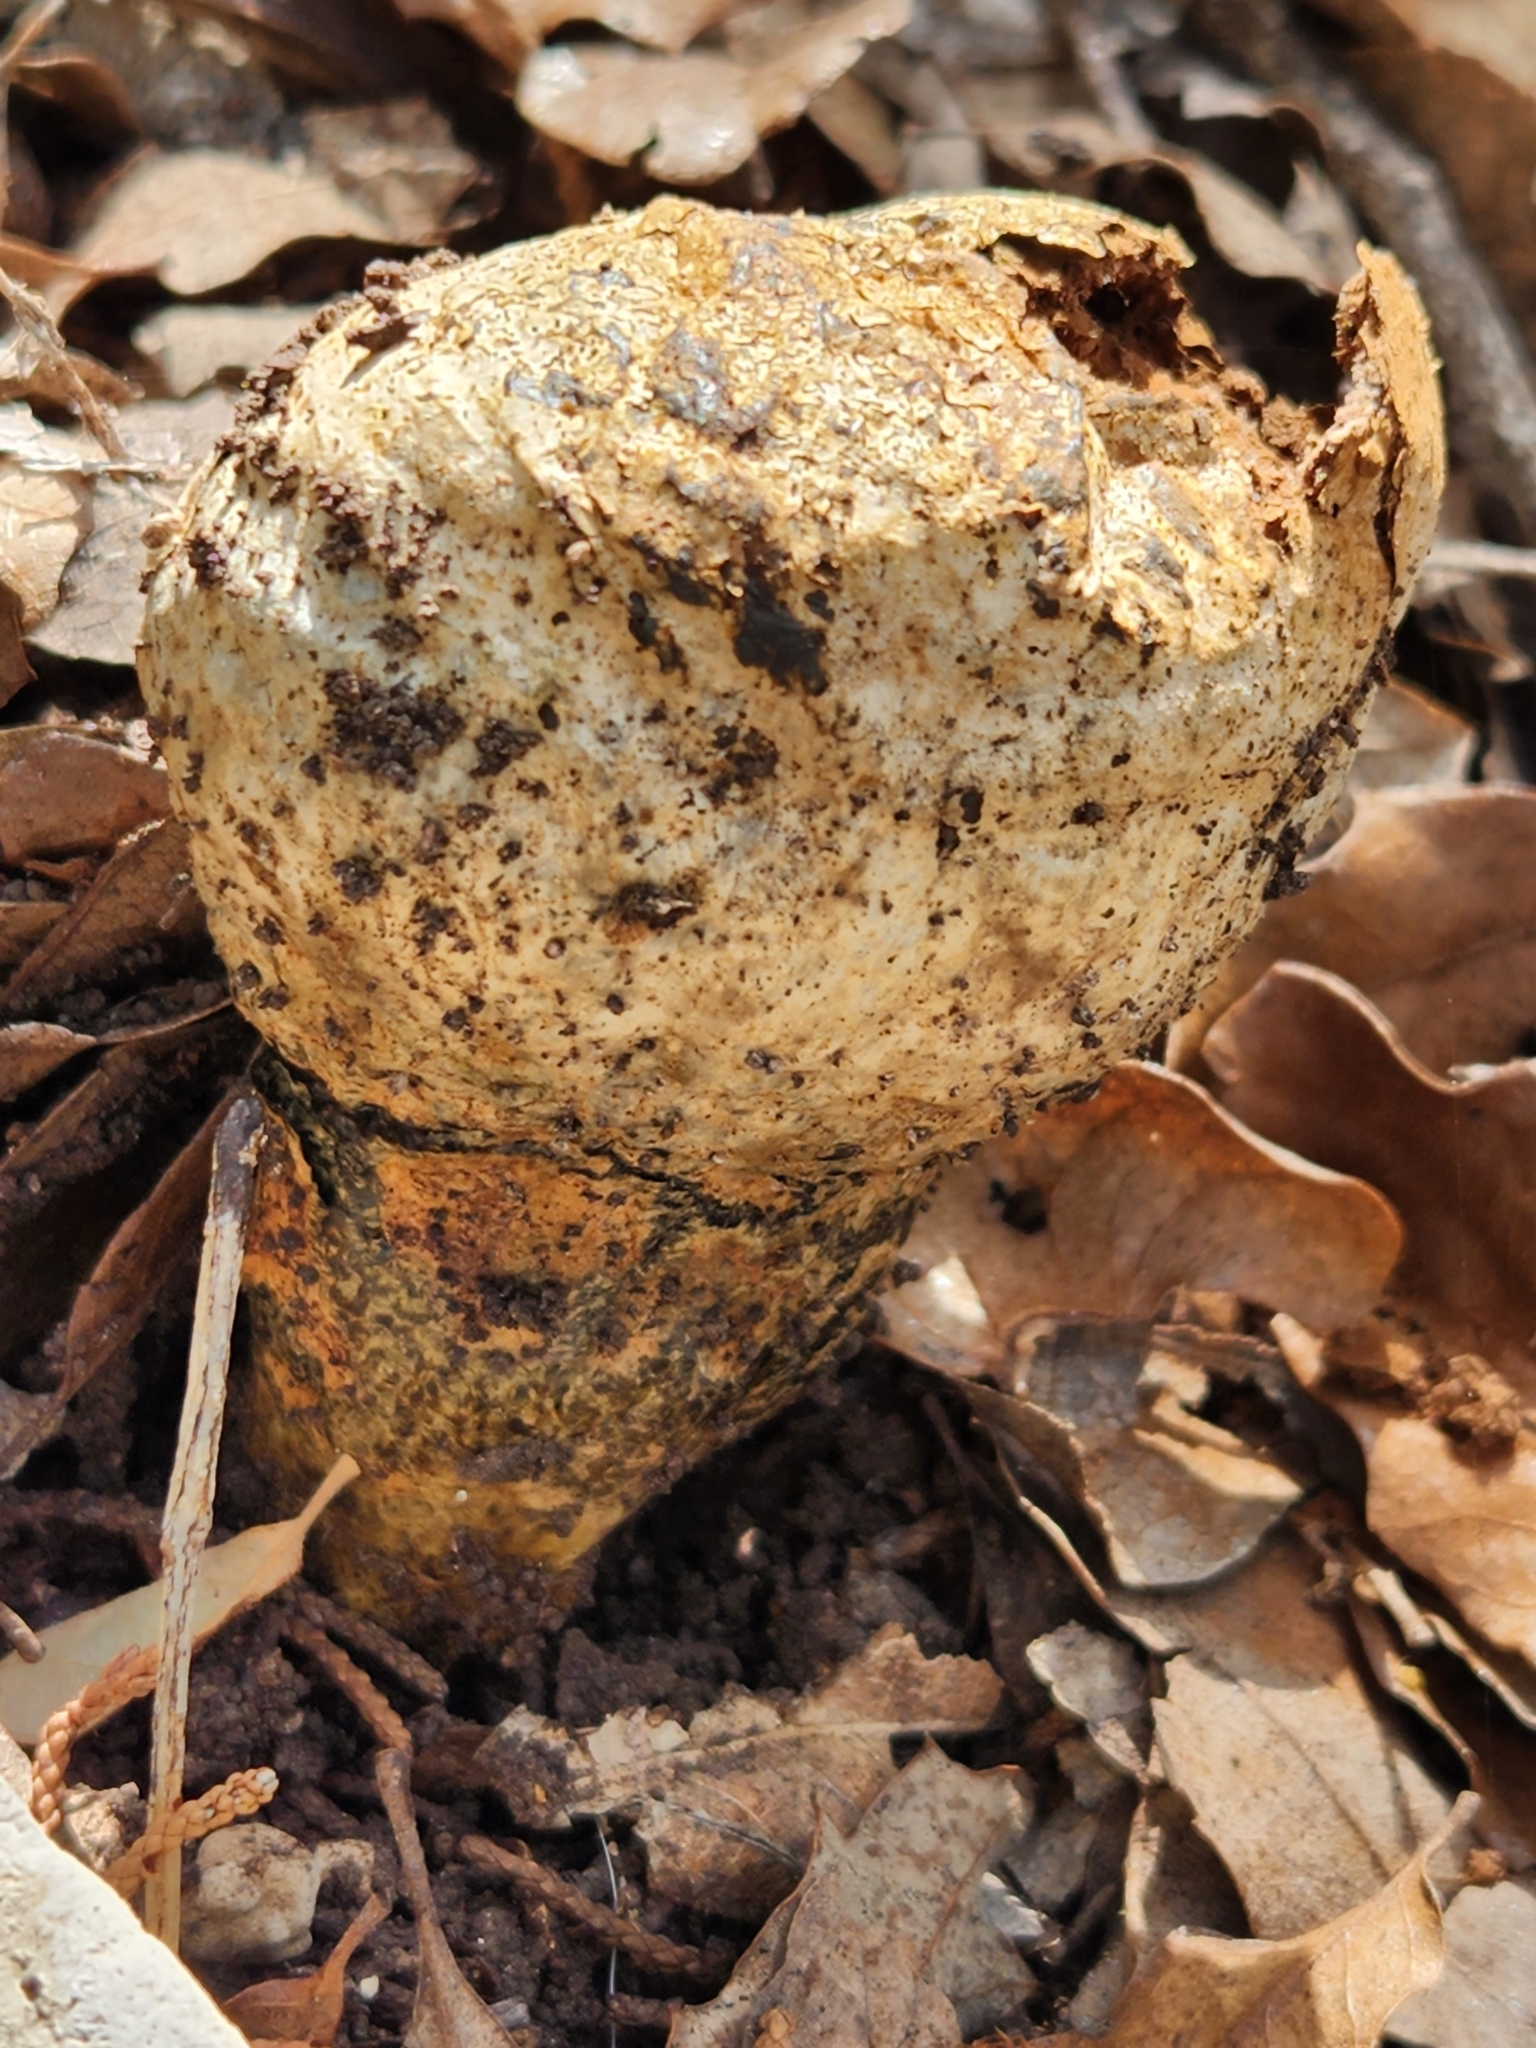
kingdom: Fungi
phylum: Basidiomycota
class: Agaricomycetes
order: Boletales
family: Sclerodermataceae
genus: Pisolithus
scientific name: Pisolithus arenarius
